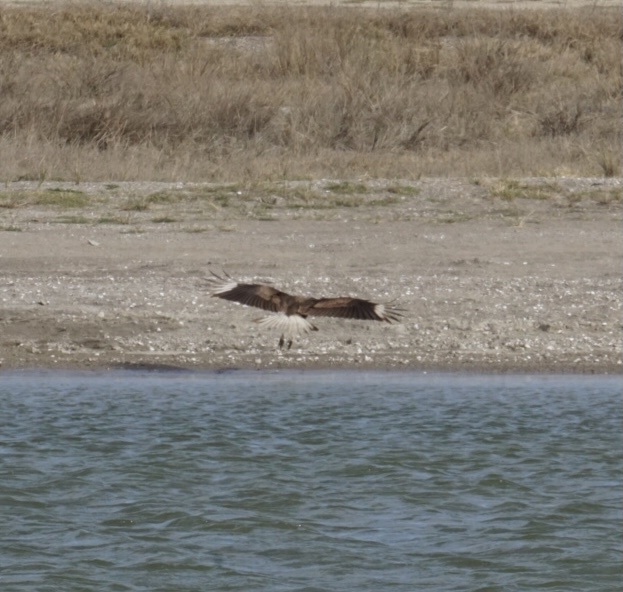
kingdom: Animalia
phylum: Chordata
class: Aves
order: Falconiformes
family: Falconidae
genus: Caracara
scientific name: Caracara plancus
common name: Southern caracara
